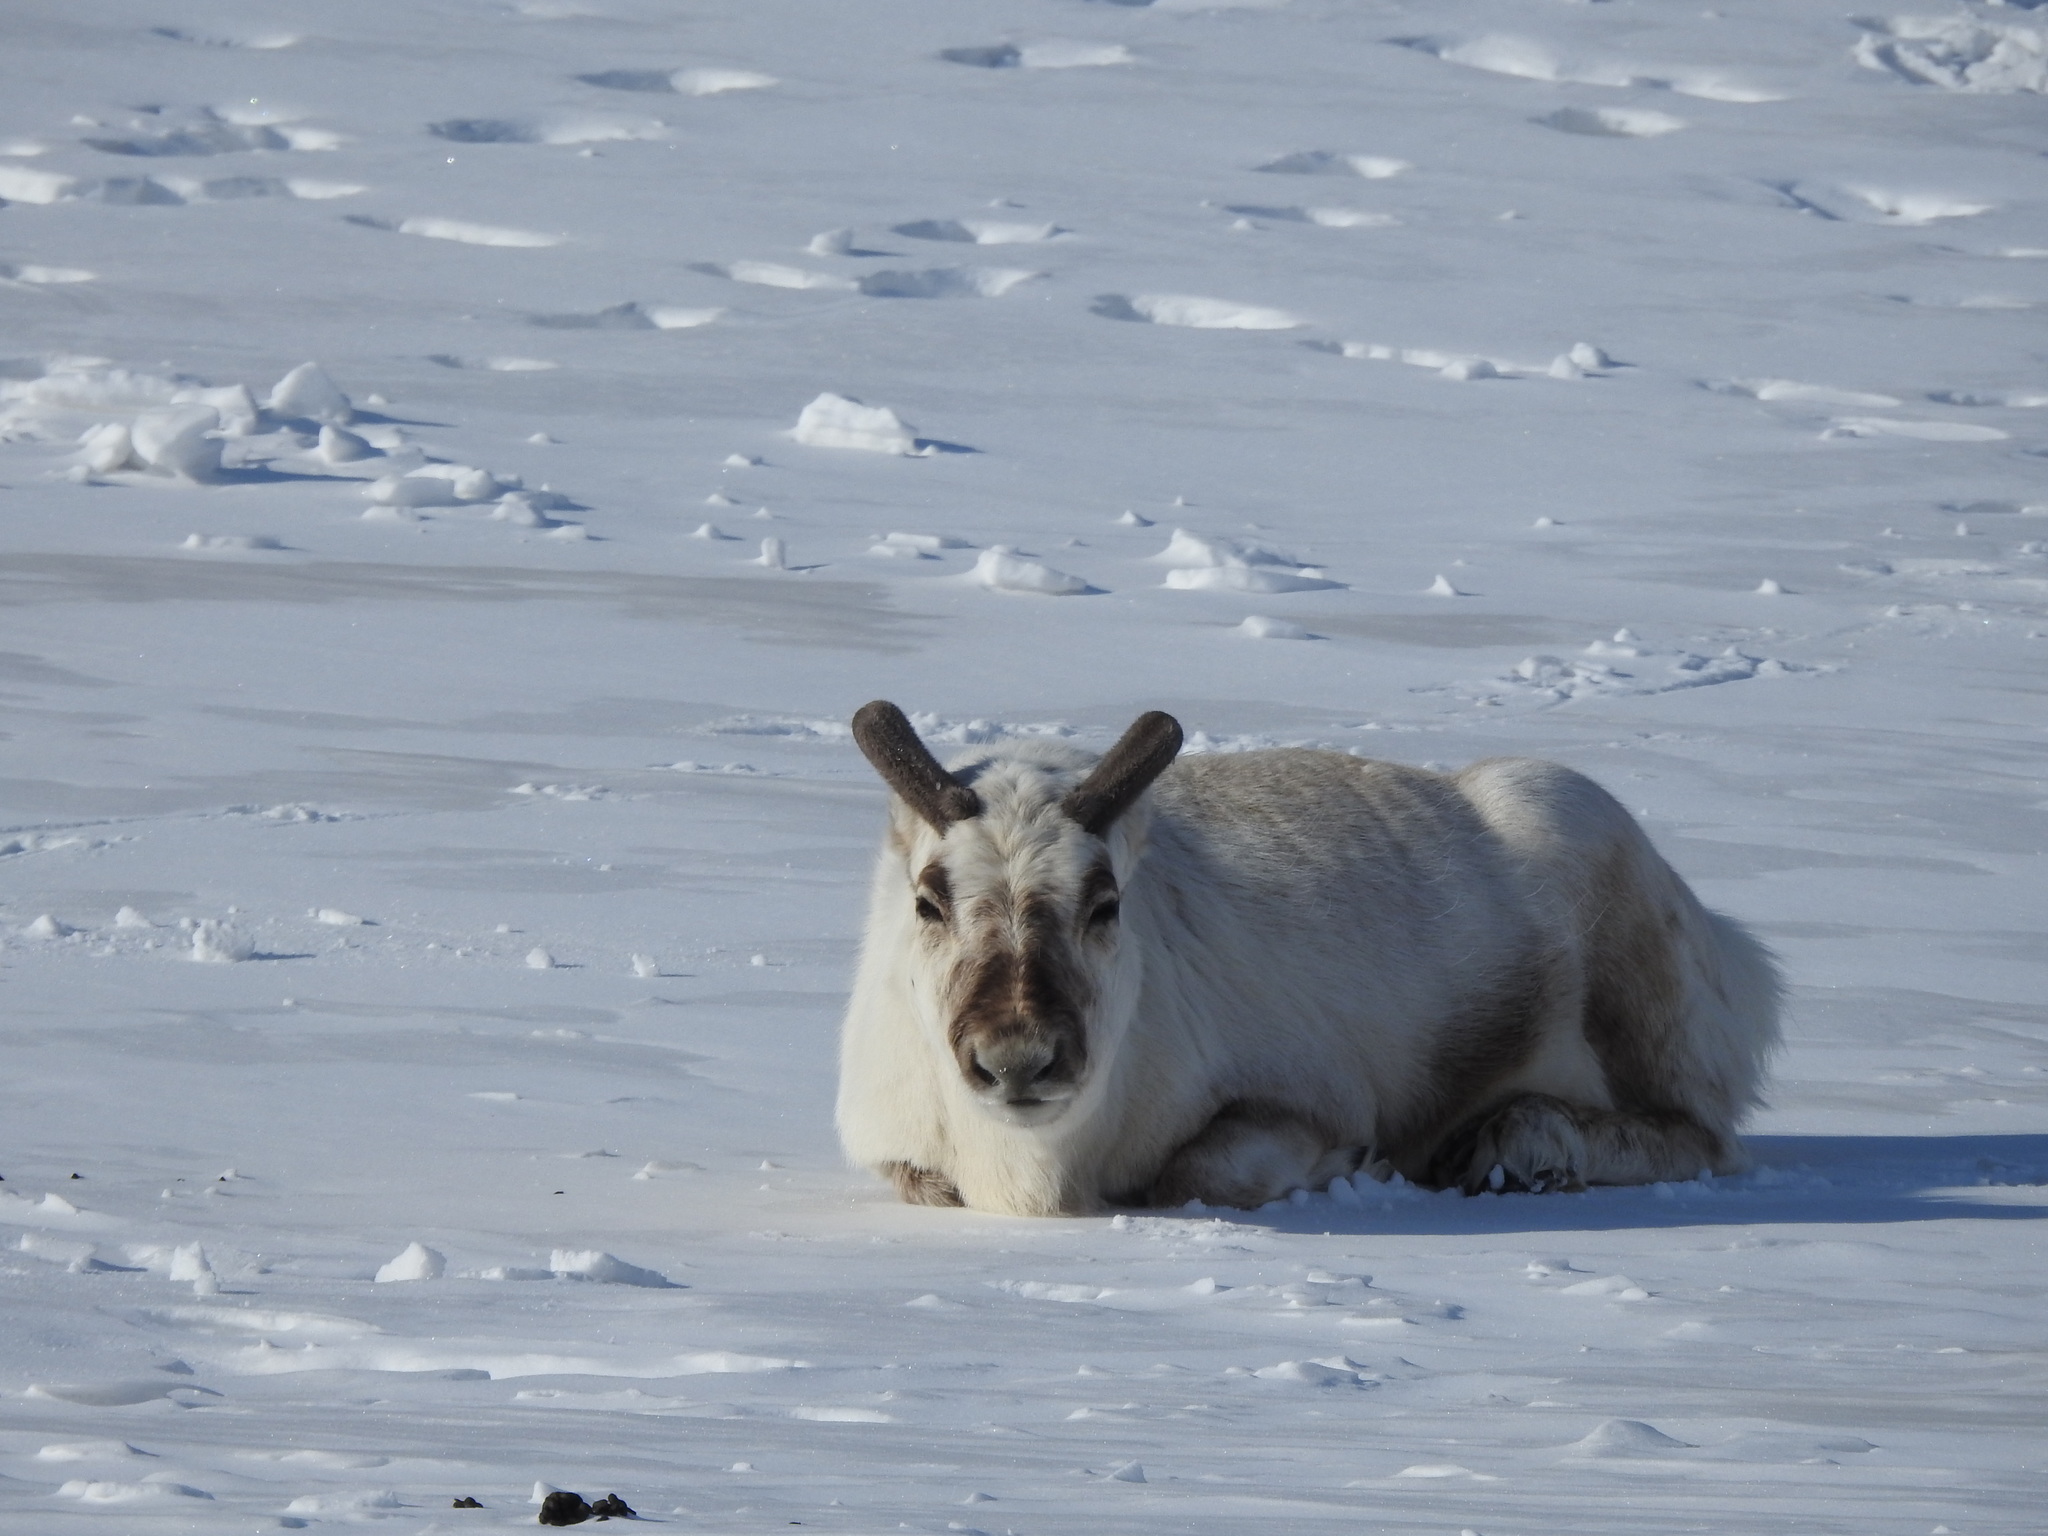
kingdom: Animalia
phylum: Chordata
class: Mammalia
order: Artiodactyla
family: Cervidae
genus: Rangifer
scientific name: Rangifer tarandus
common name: Reindeer
